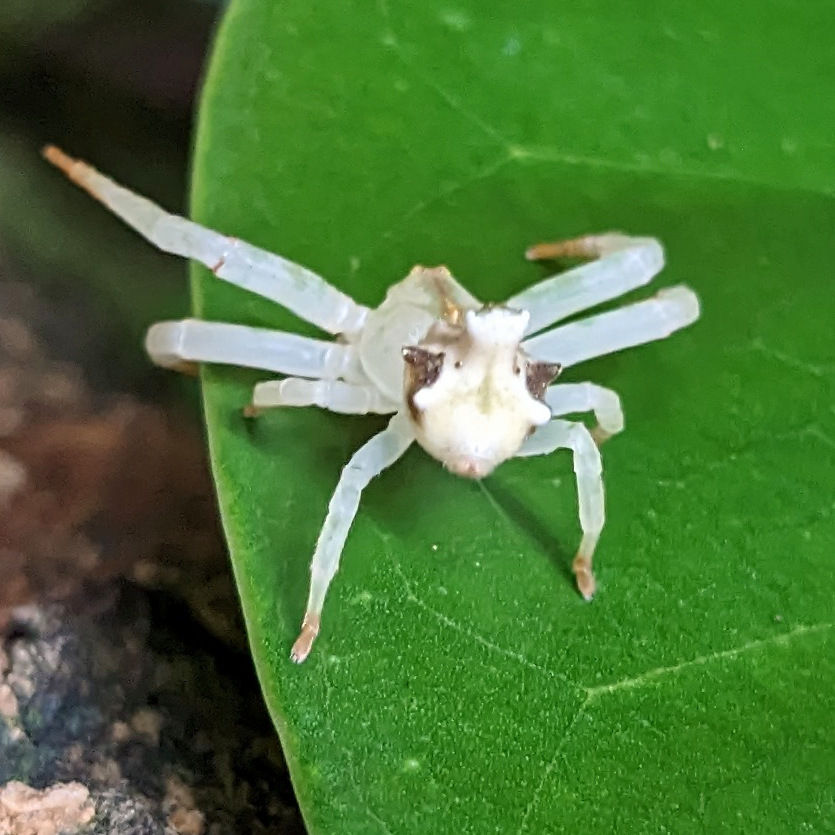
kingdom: Animalia
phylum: Arthropoda
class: Arachnida
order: Araneae
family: Thomisidae
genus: Epicadus
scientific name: Epicadus trituberculatus
